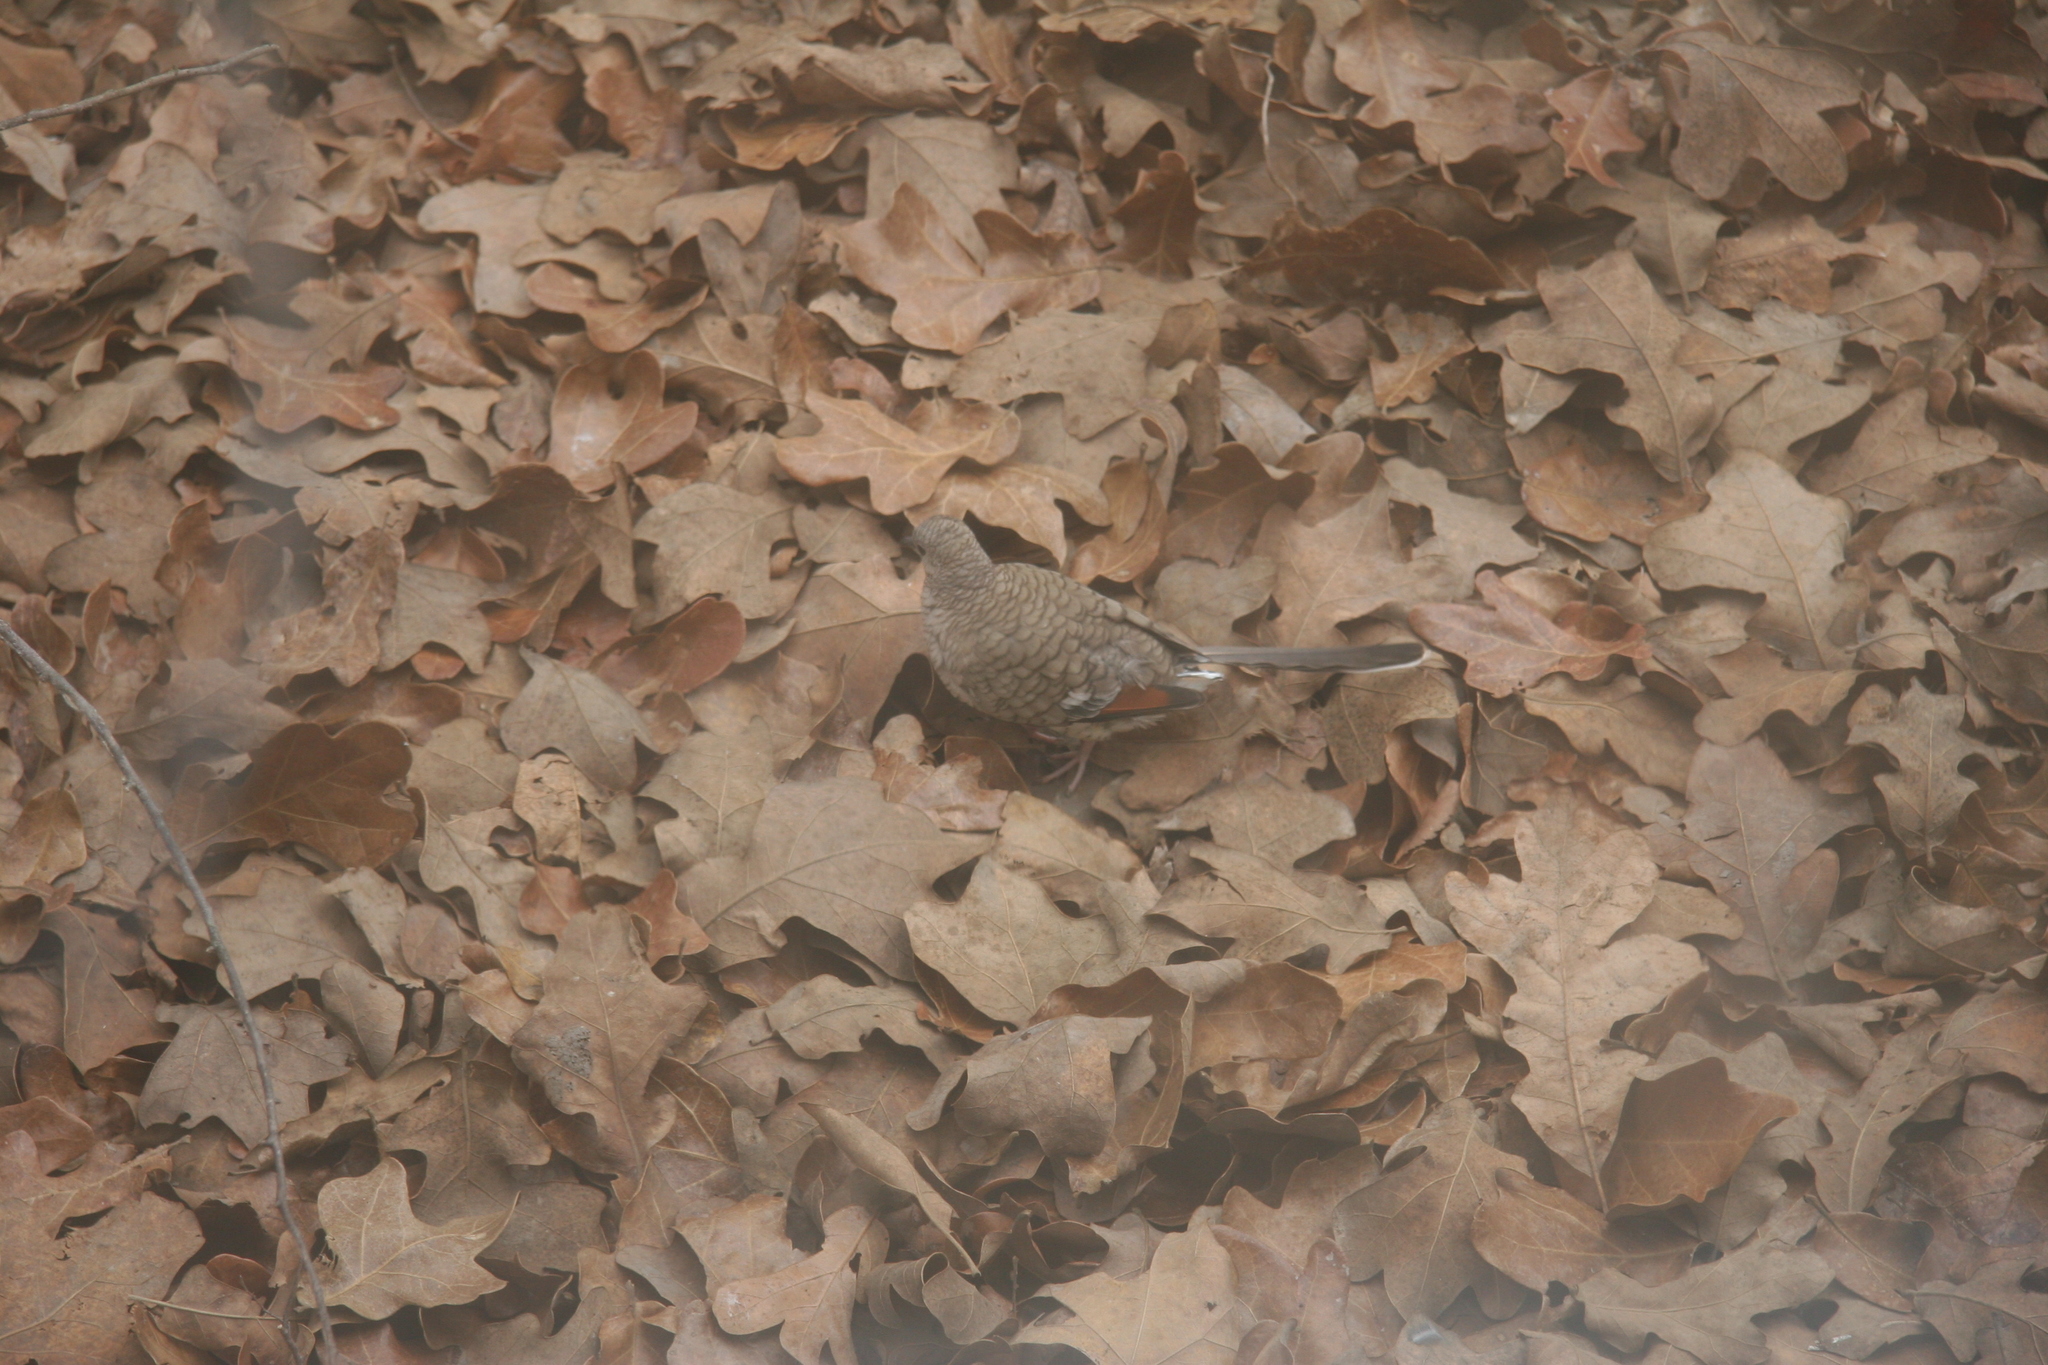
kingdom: Animalia
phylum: Chordata
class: Aves
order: Columbiformes
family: Columbidae
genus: Columbina
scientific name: Columbina inca
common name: Inca dove
